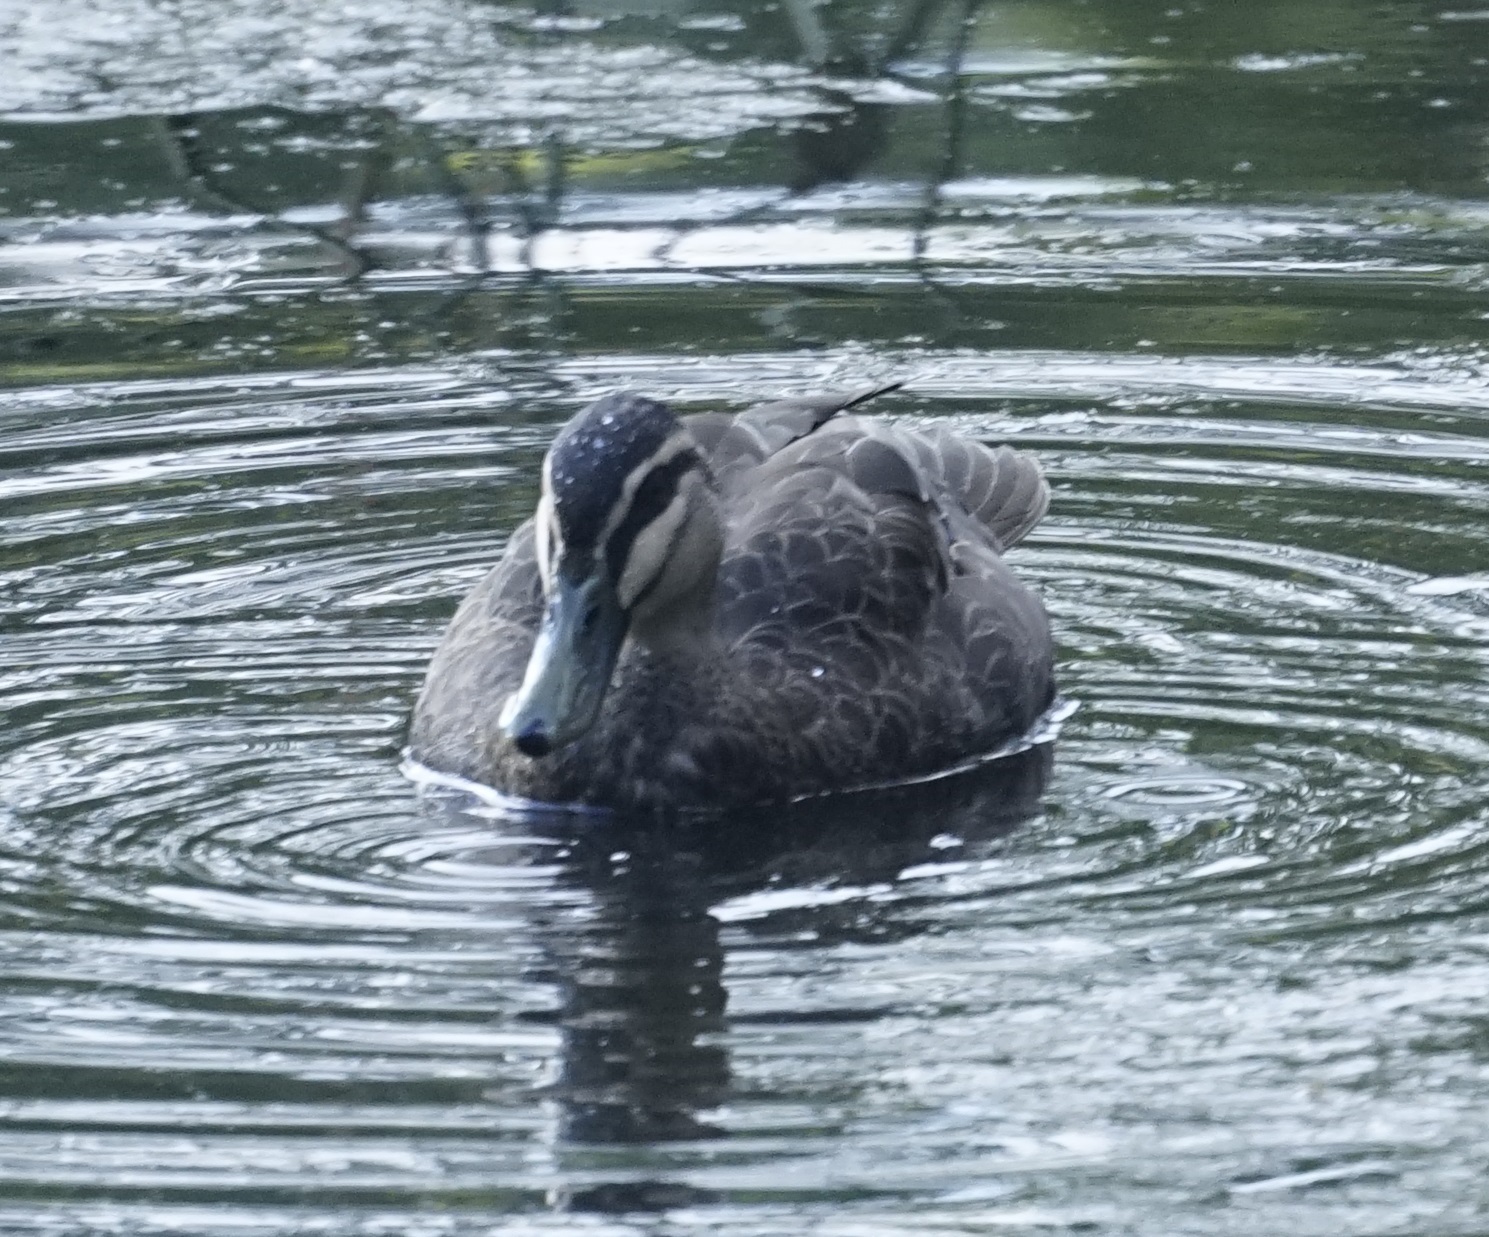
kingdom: Animalia
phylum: Chordata
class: Aves
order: Anseriformes
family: Anatidae
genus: Anas
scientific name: Anas superciliosa
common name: Pacific black duck
